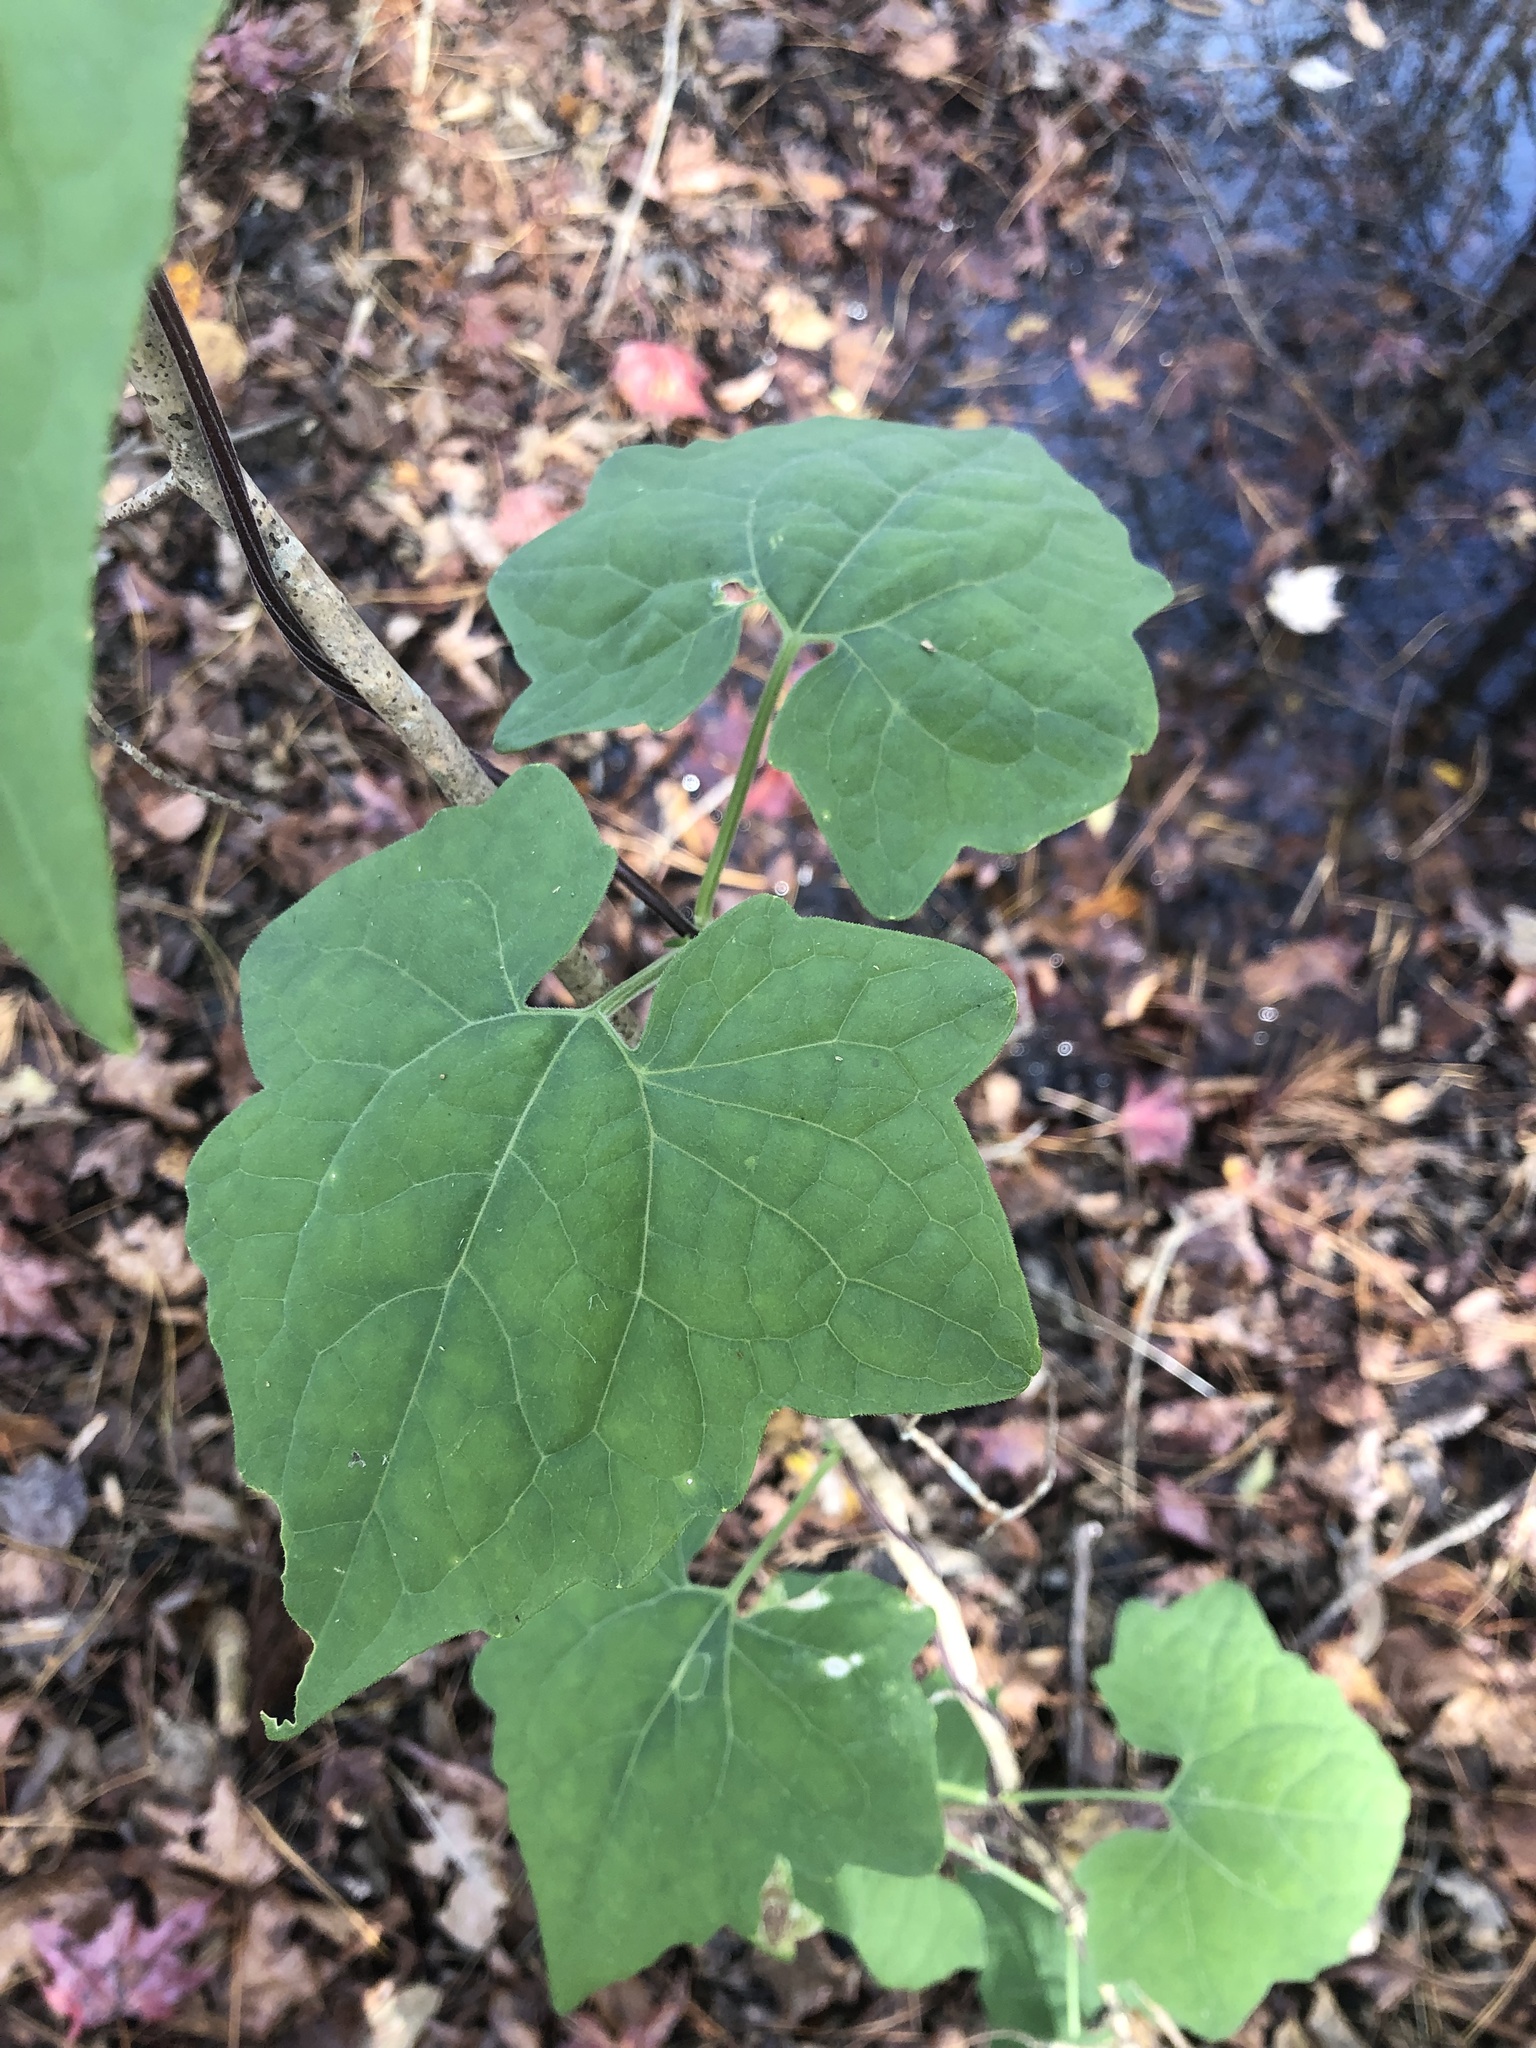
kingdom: Plantae
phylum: Tracheophyta
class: Magnoliopsida
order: Asterales
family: Asteraceae
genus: Mikania
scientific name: Mikania cordifolia
